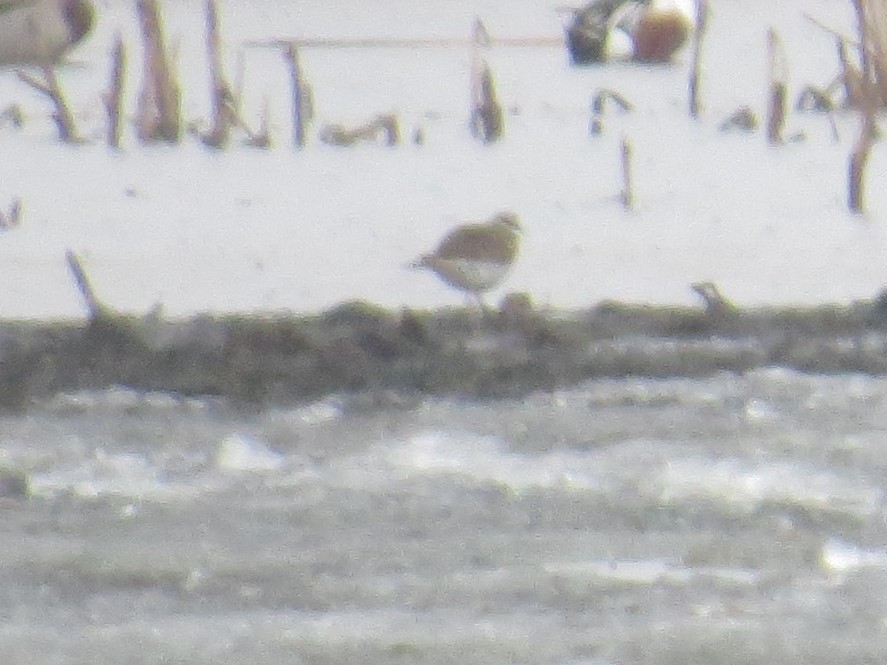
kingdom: Animalia
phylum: Chordata
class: Aves
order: Charadriiformes
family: Charadriidae
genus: Charadrius
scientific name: Charadrius vociferus
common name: Killdeer
